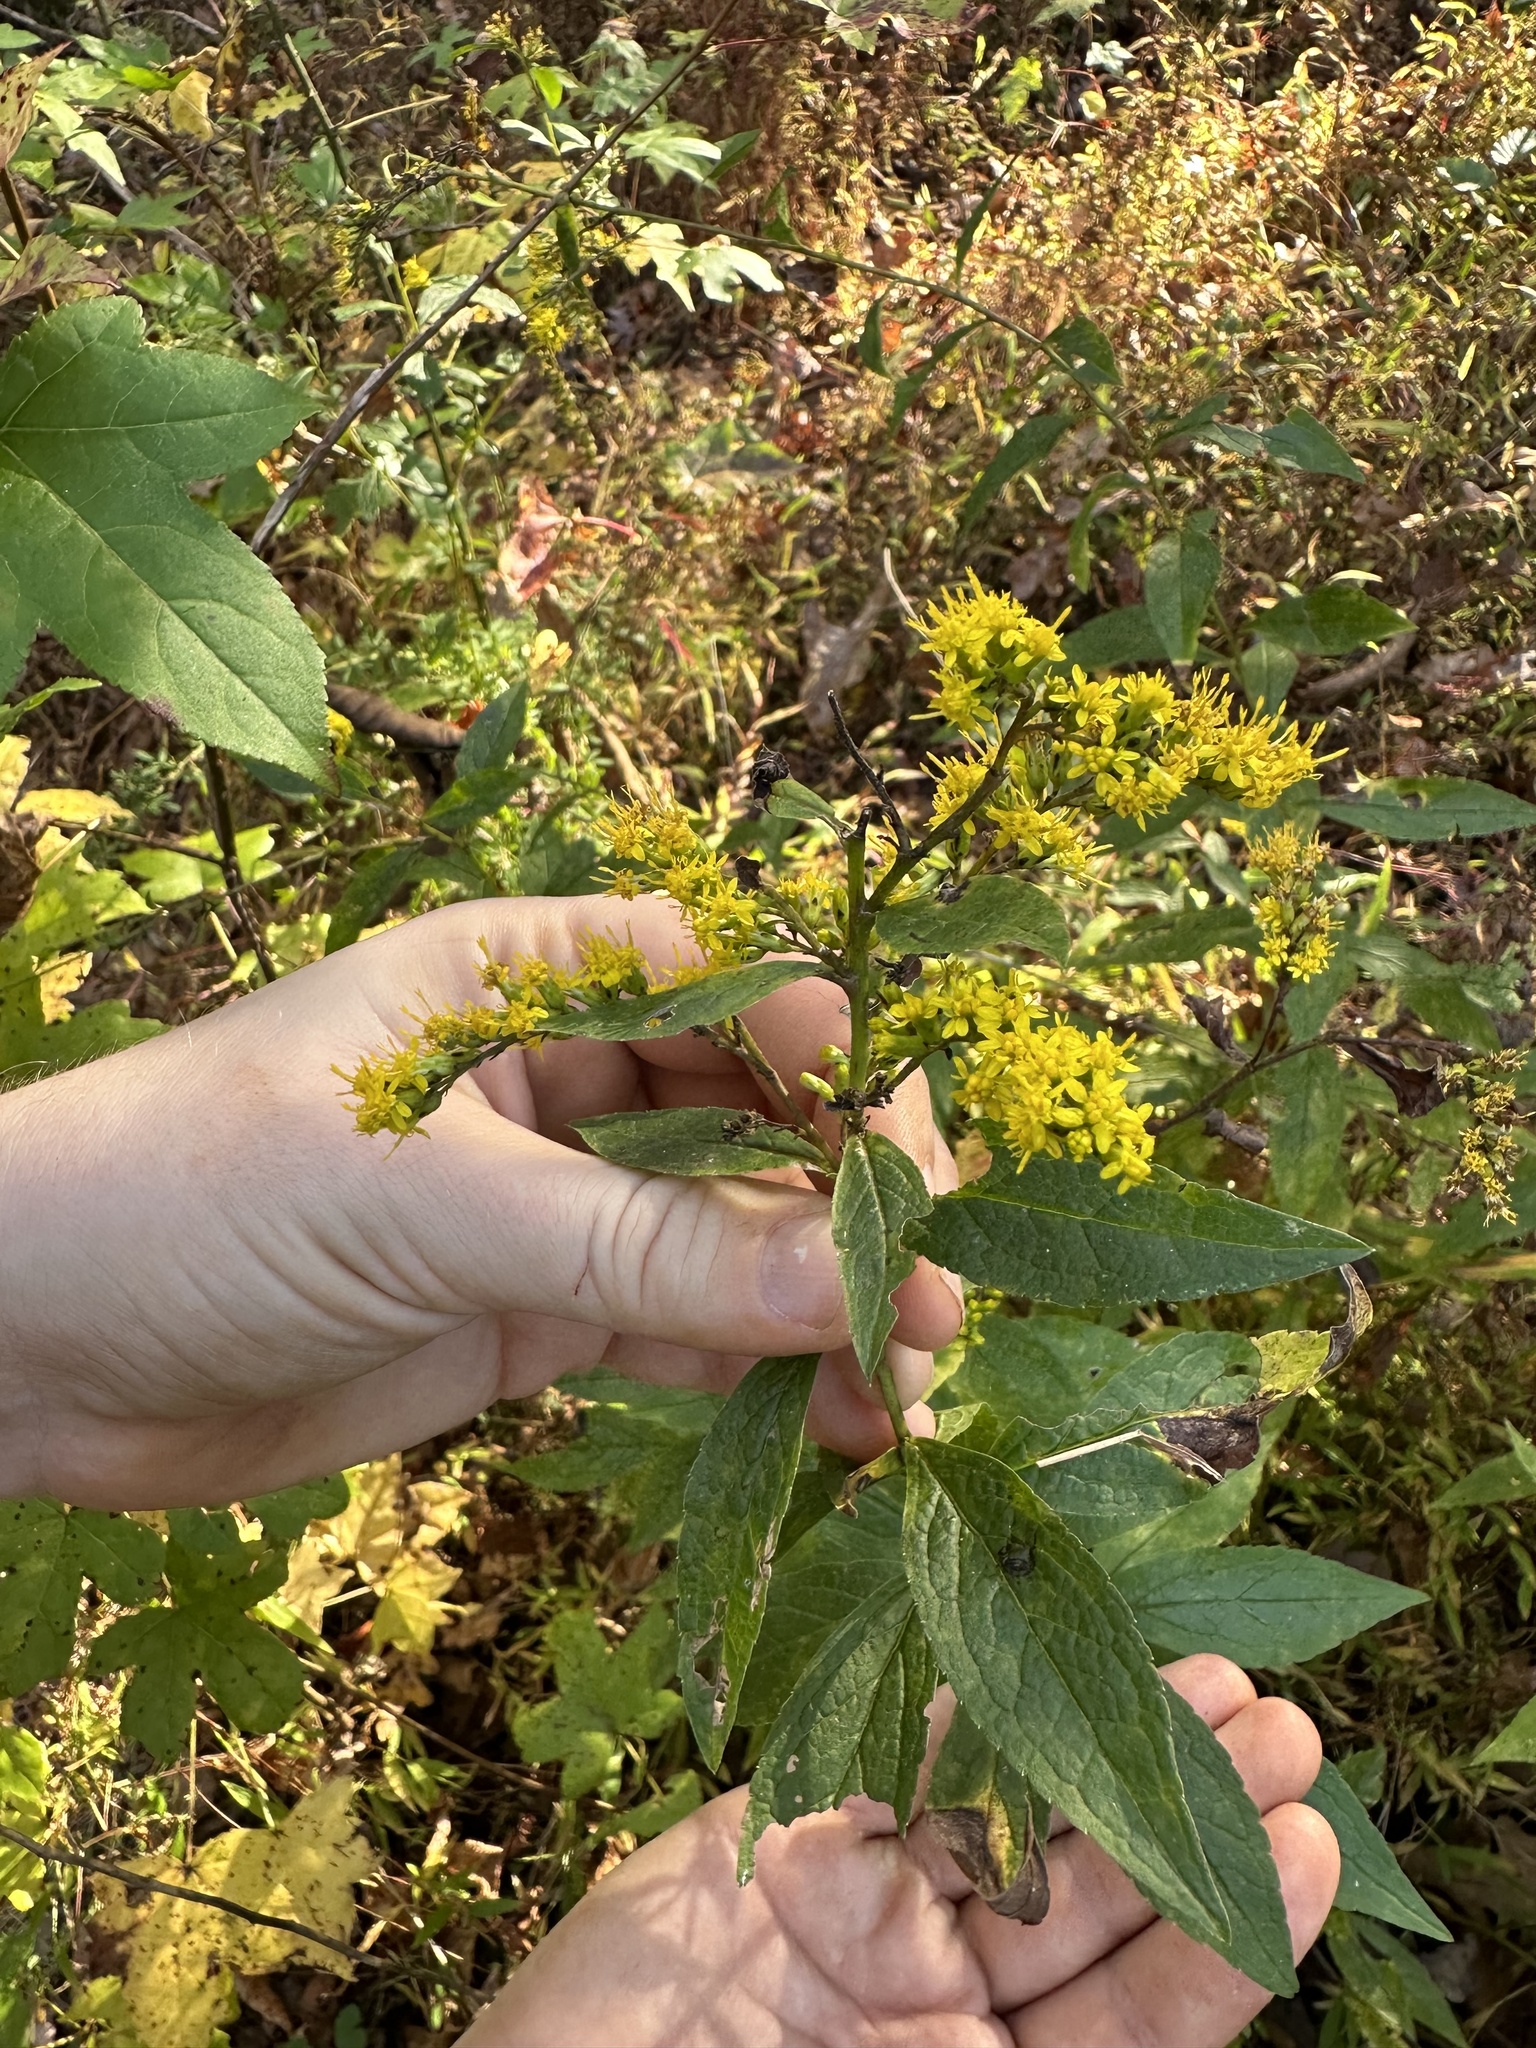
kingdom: Plantae
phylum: Tracheophyta
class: Magnoliopsida
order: Asterales
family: Asteraceae
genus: Solidago
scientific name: Solidago rugosa
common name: Rough-stemmed goldenrod
